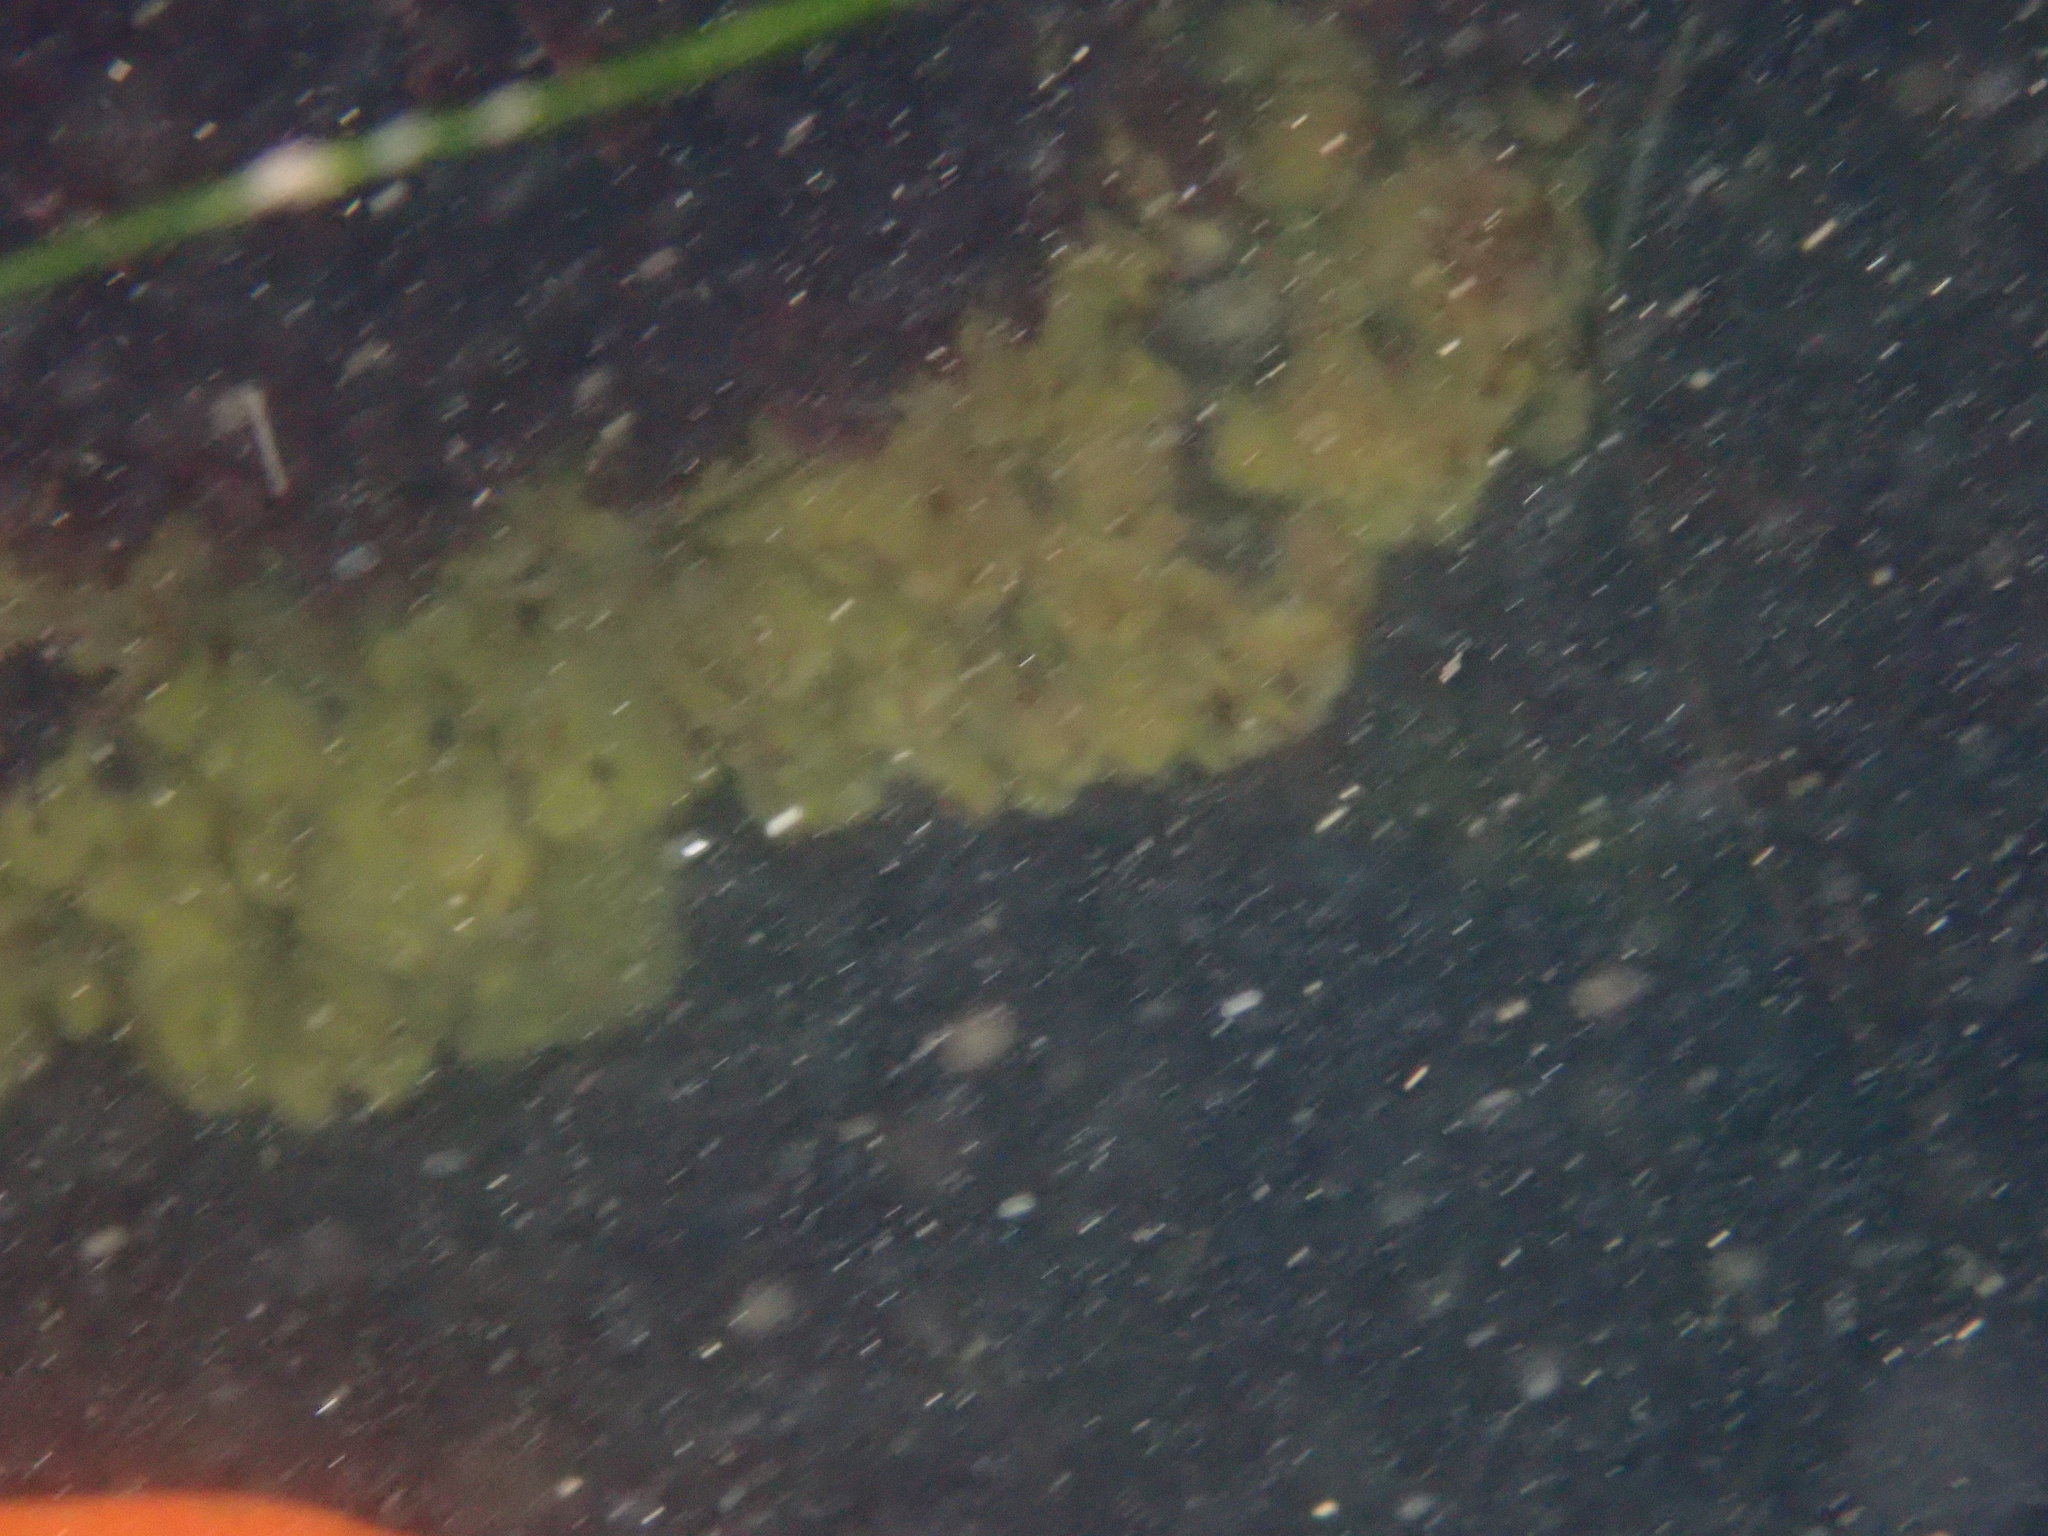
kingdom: Animalia
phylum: Chordata
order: Perciformes
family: Pomacentridae
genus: Hypsypops
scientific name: Hypsypops rubicundus
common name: Garibaldi
